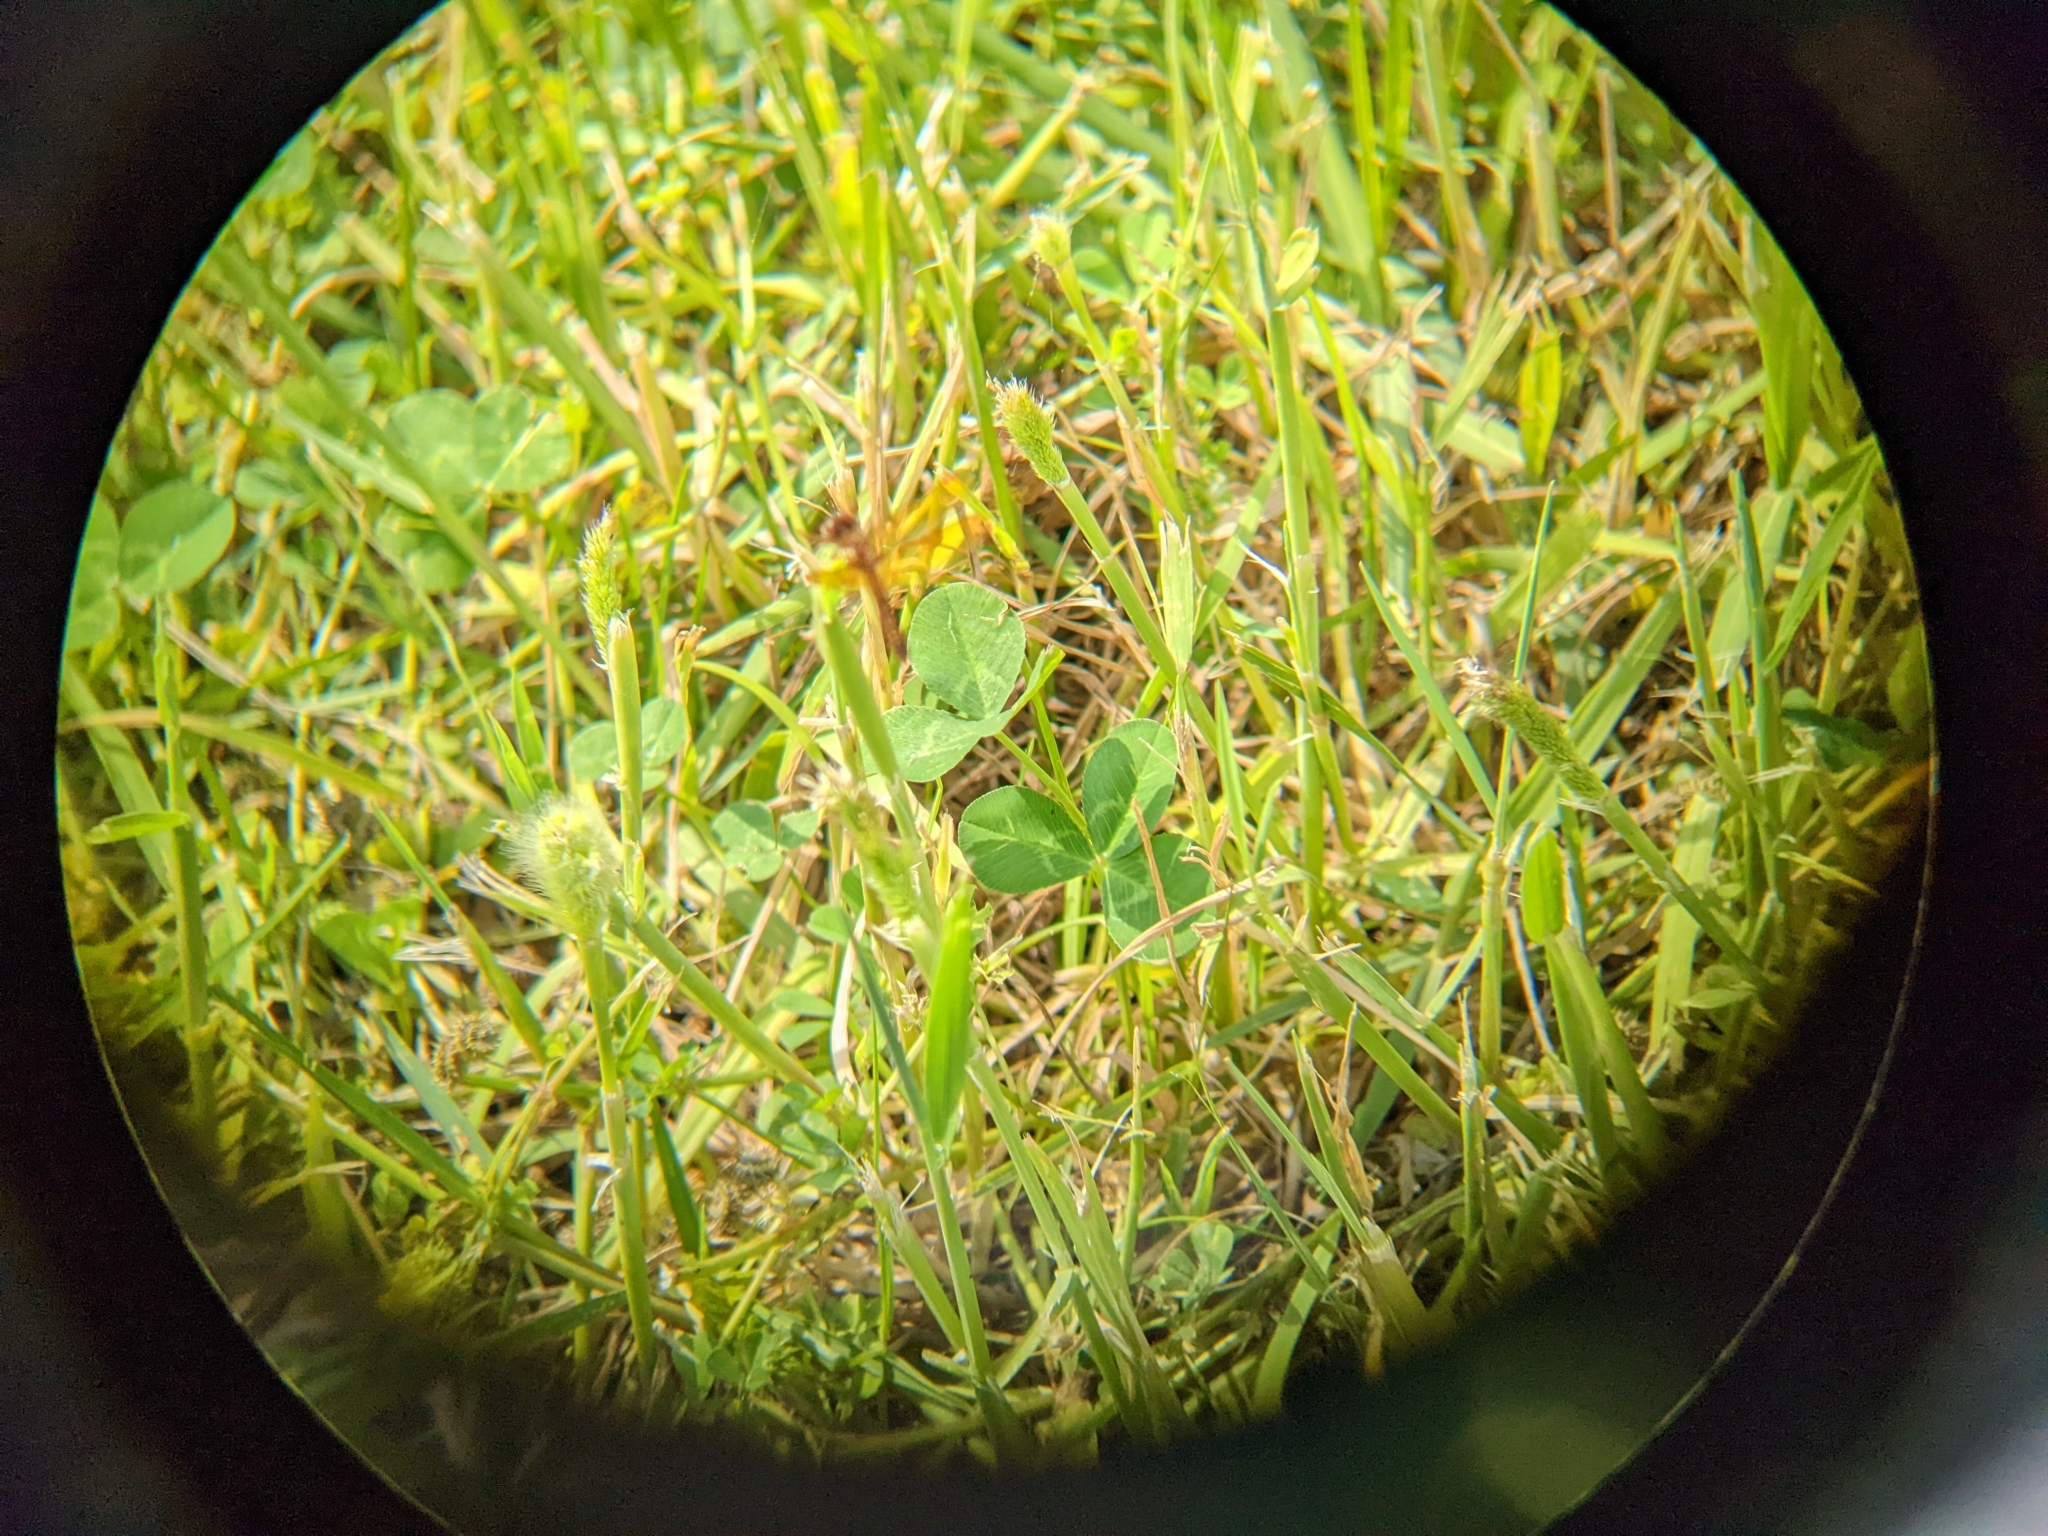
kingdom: Animalia
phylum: Arthropoda
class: Insecta
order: Odonata
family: Libellulidae
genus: Perithemis
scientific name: Perithemis tenera
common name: Eastern amberwing
